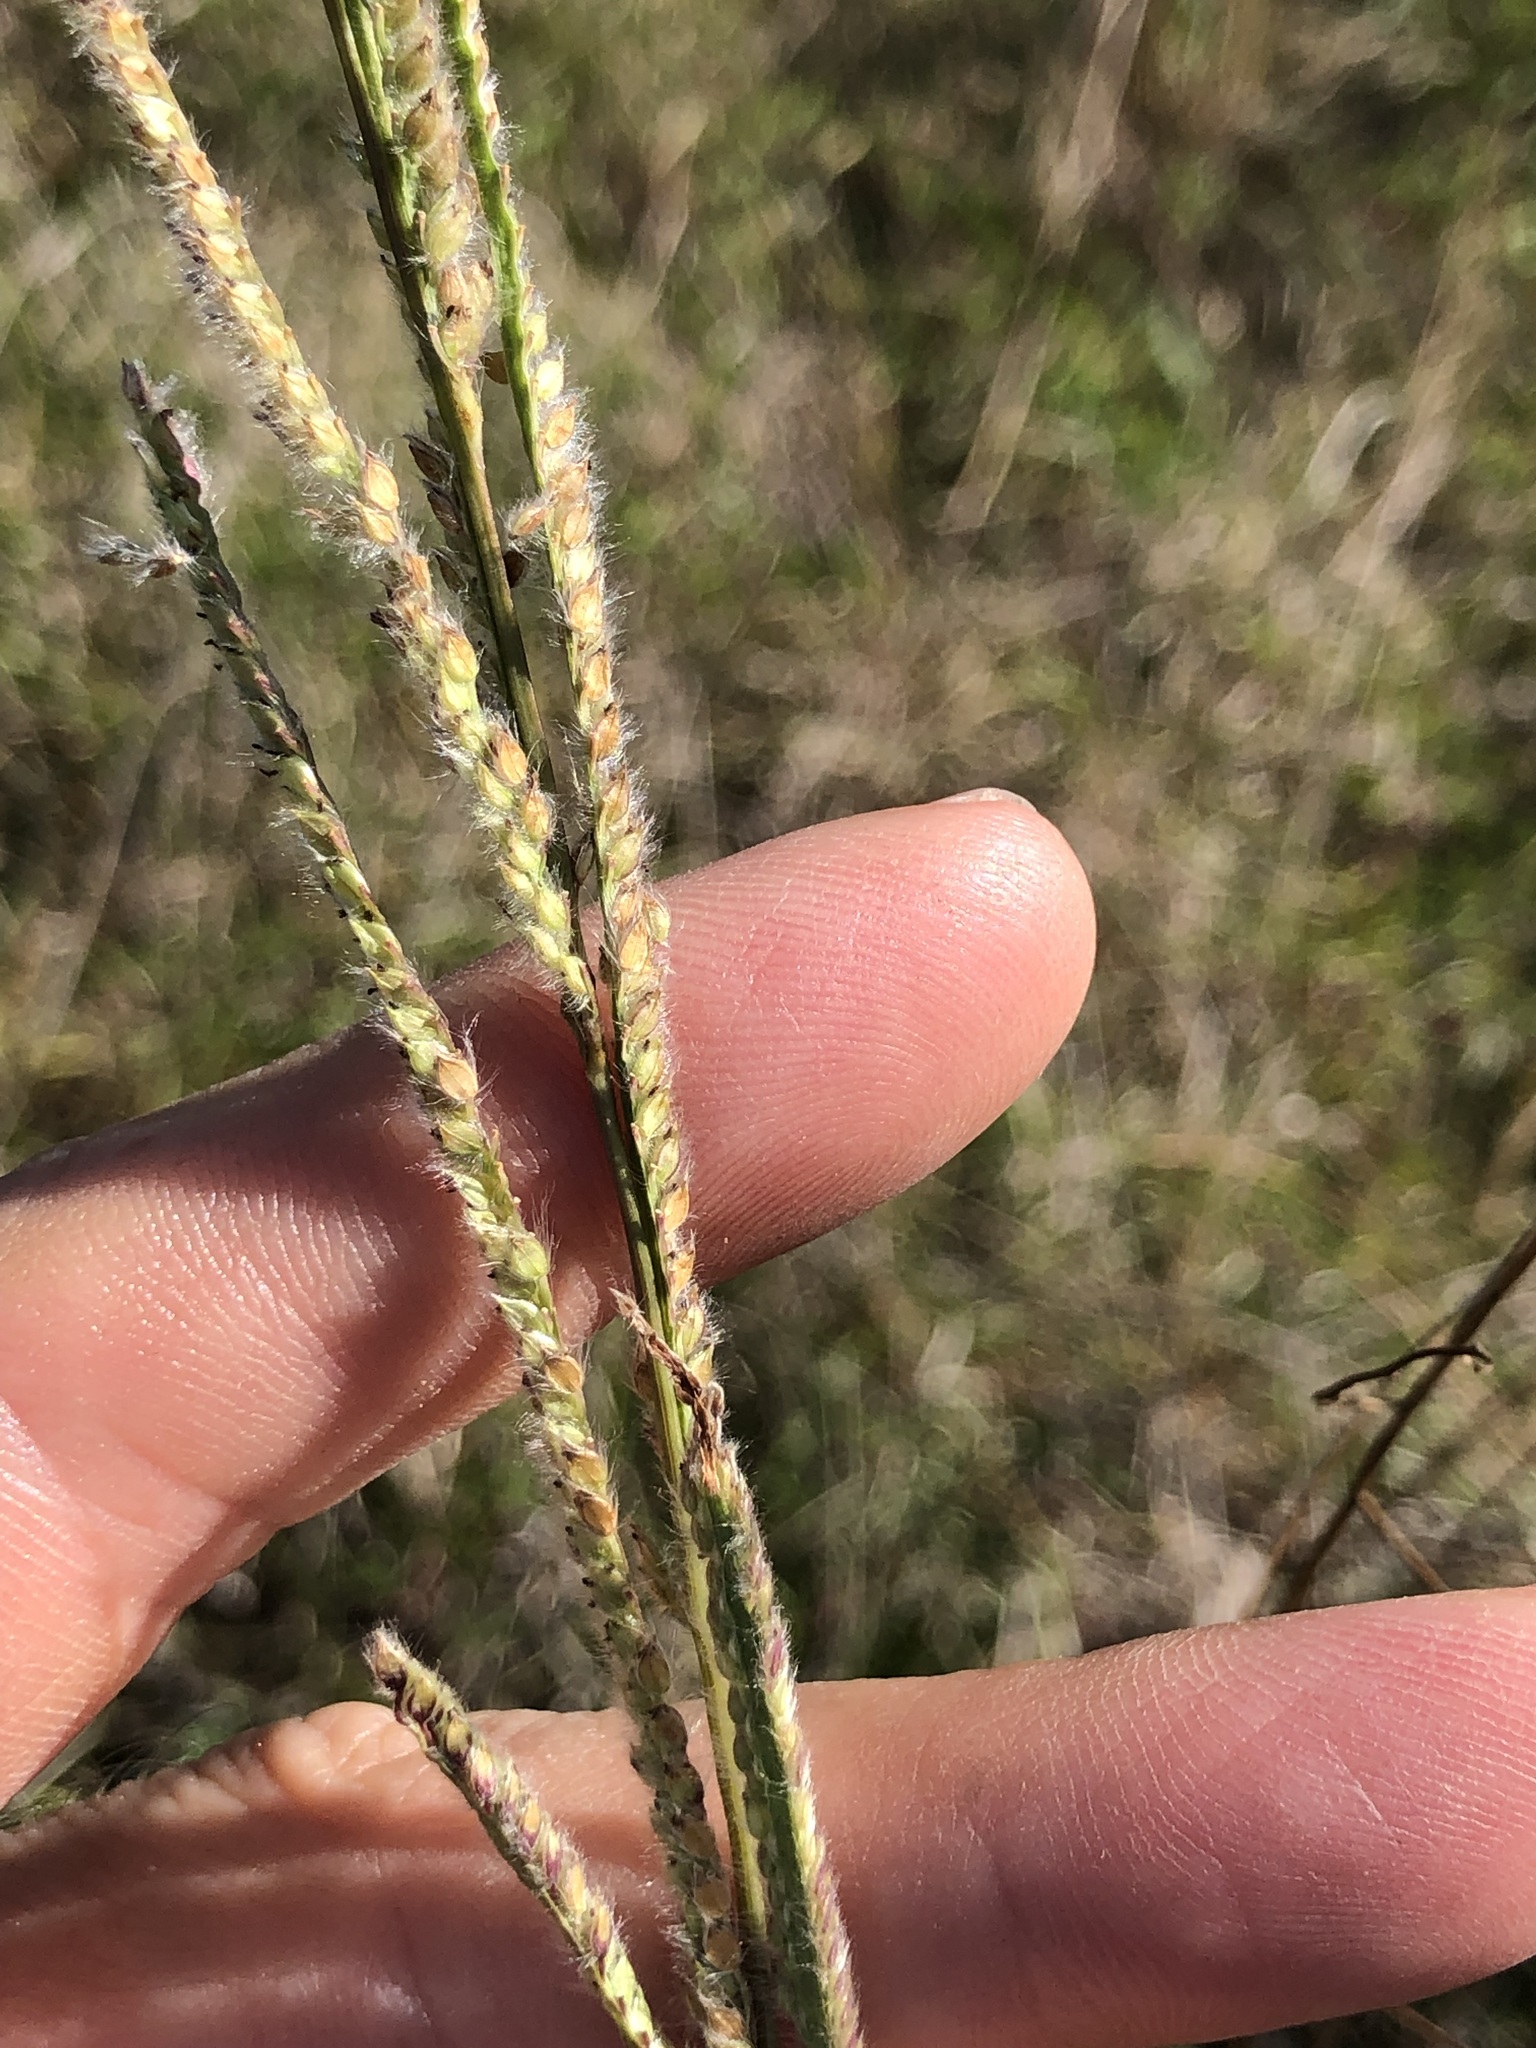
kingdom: Plantae
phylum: Tracheophyta
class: Liliopsida
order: Poales
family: Poaceae
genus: Paspalum
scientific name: Paspalum urvillei
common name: Vasey's grass
